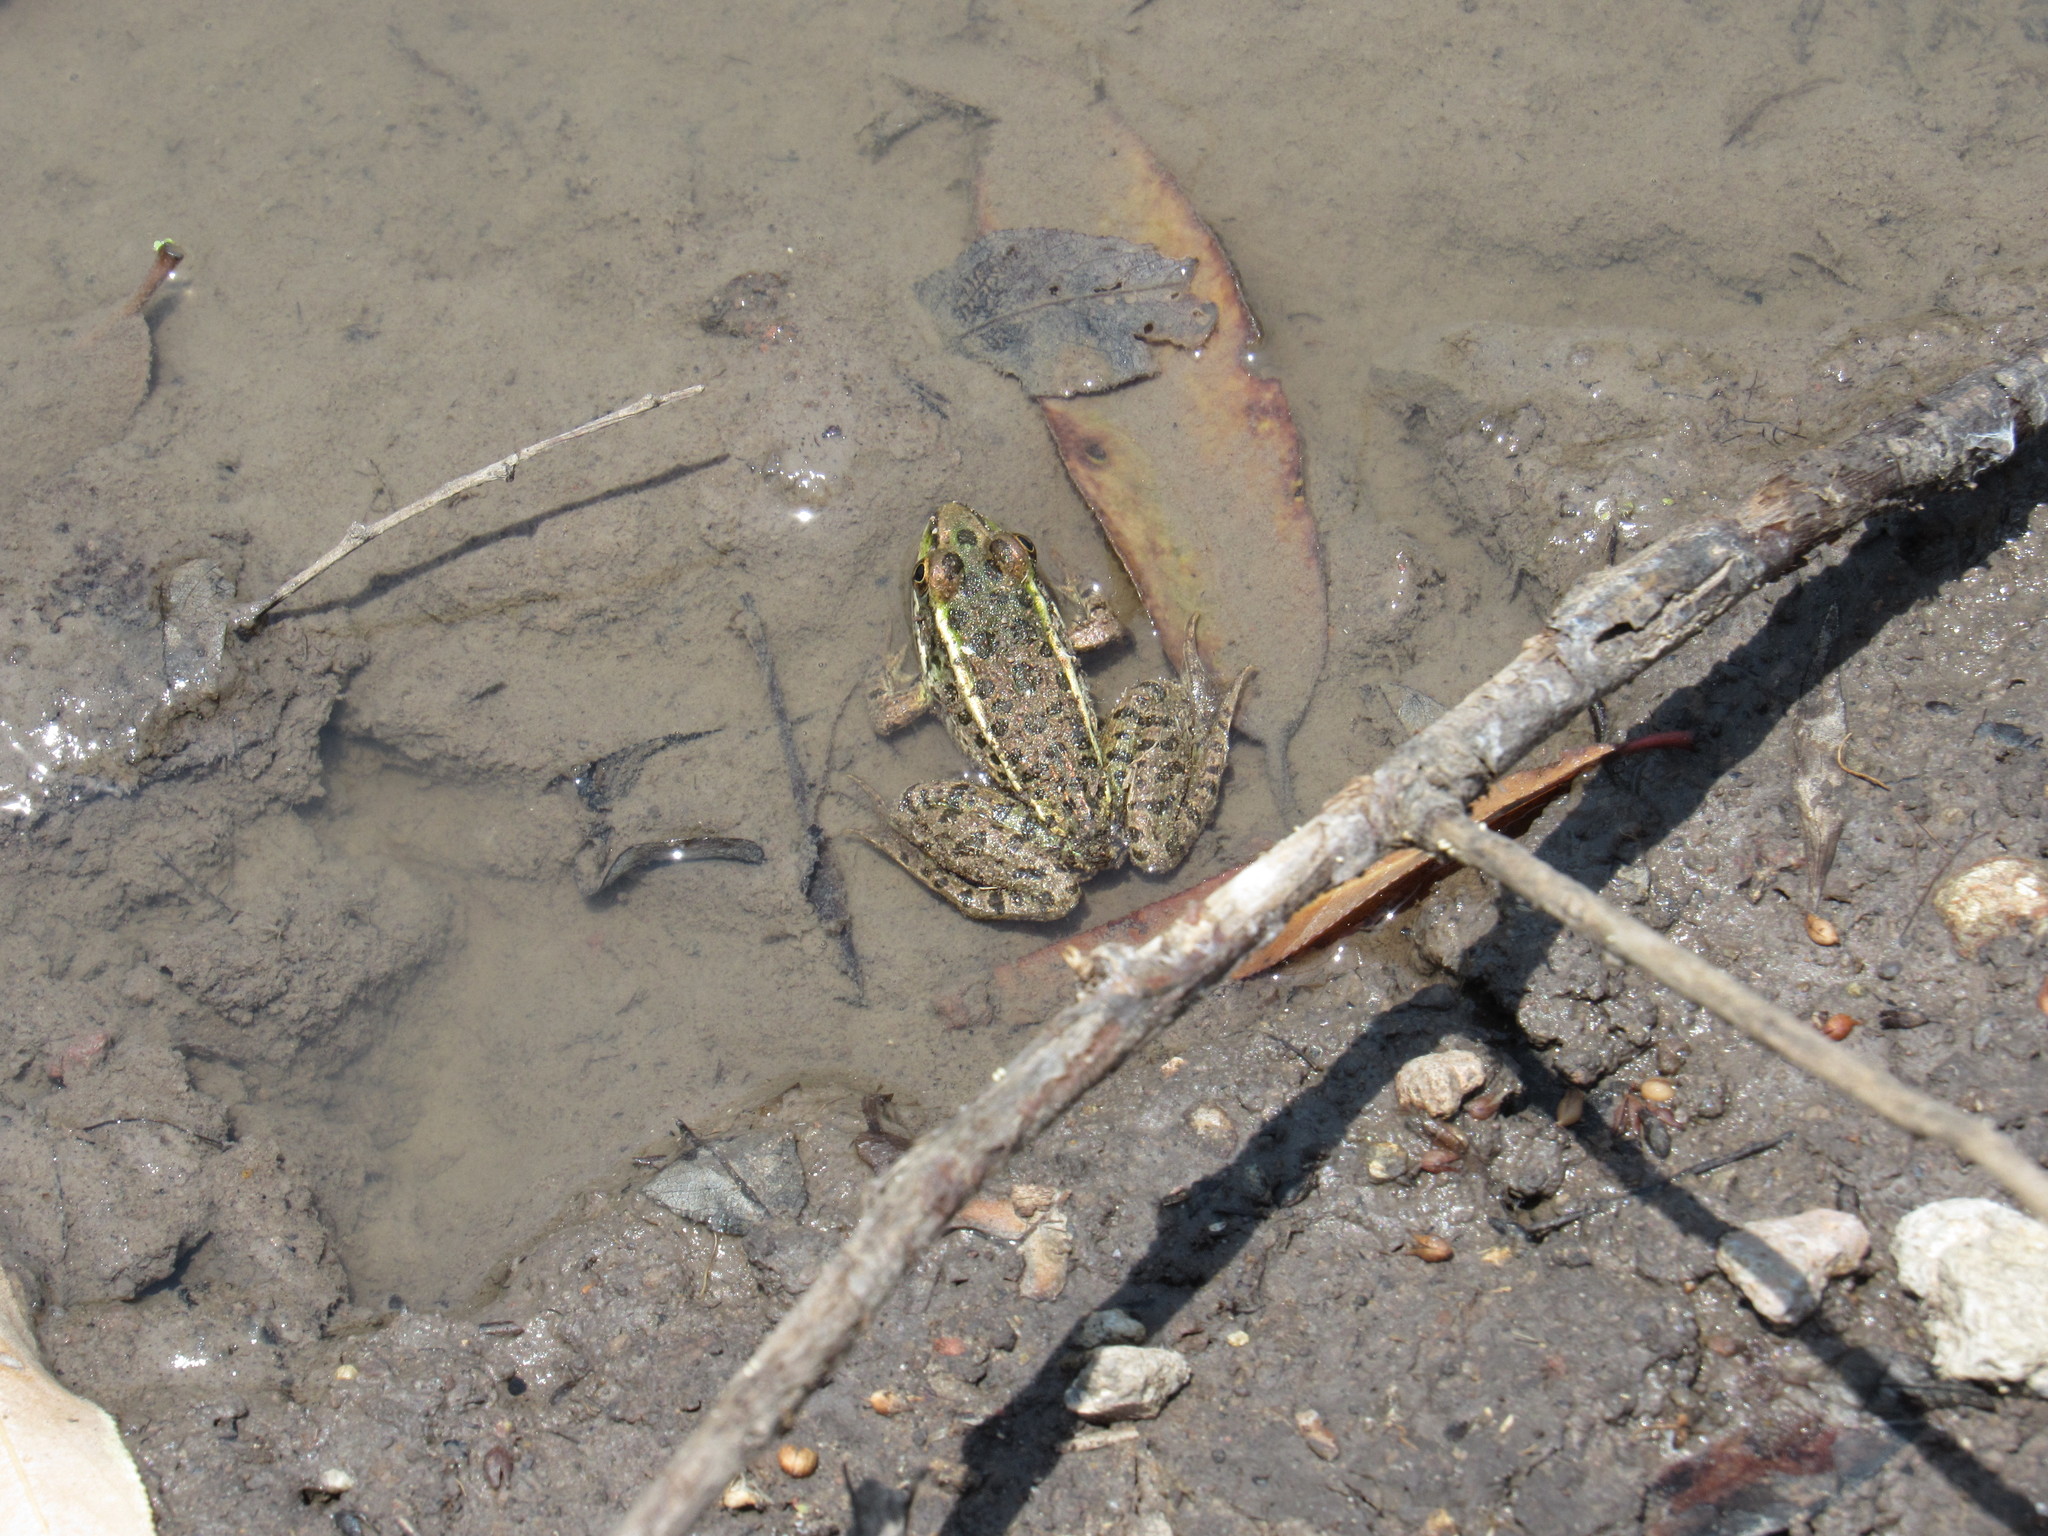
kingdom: Animalia
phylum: Chordata
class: Amphibia
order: Anura
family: Ranidae
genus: Lithobates
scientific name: Lithobates neovolcanicus
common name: Transverse volcanic leopard frog
